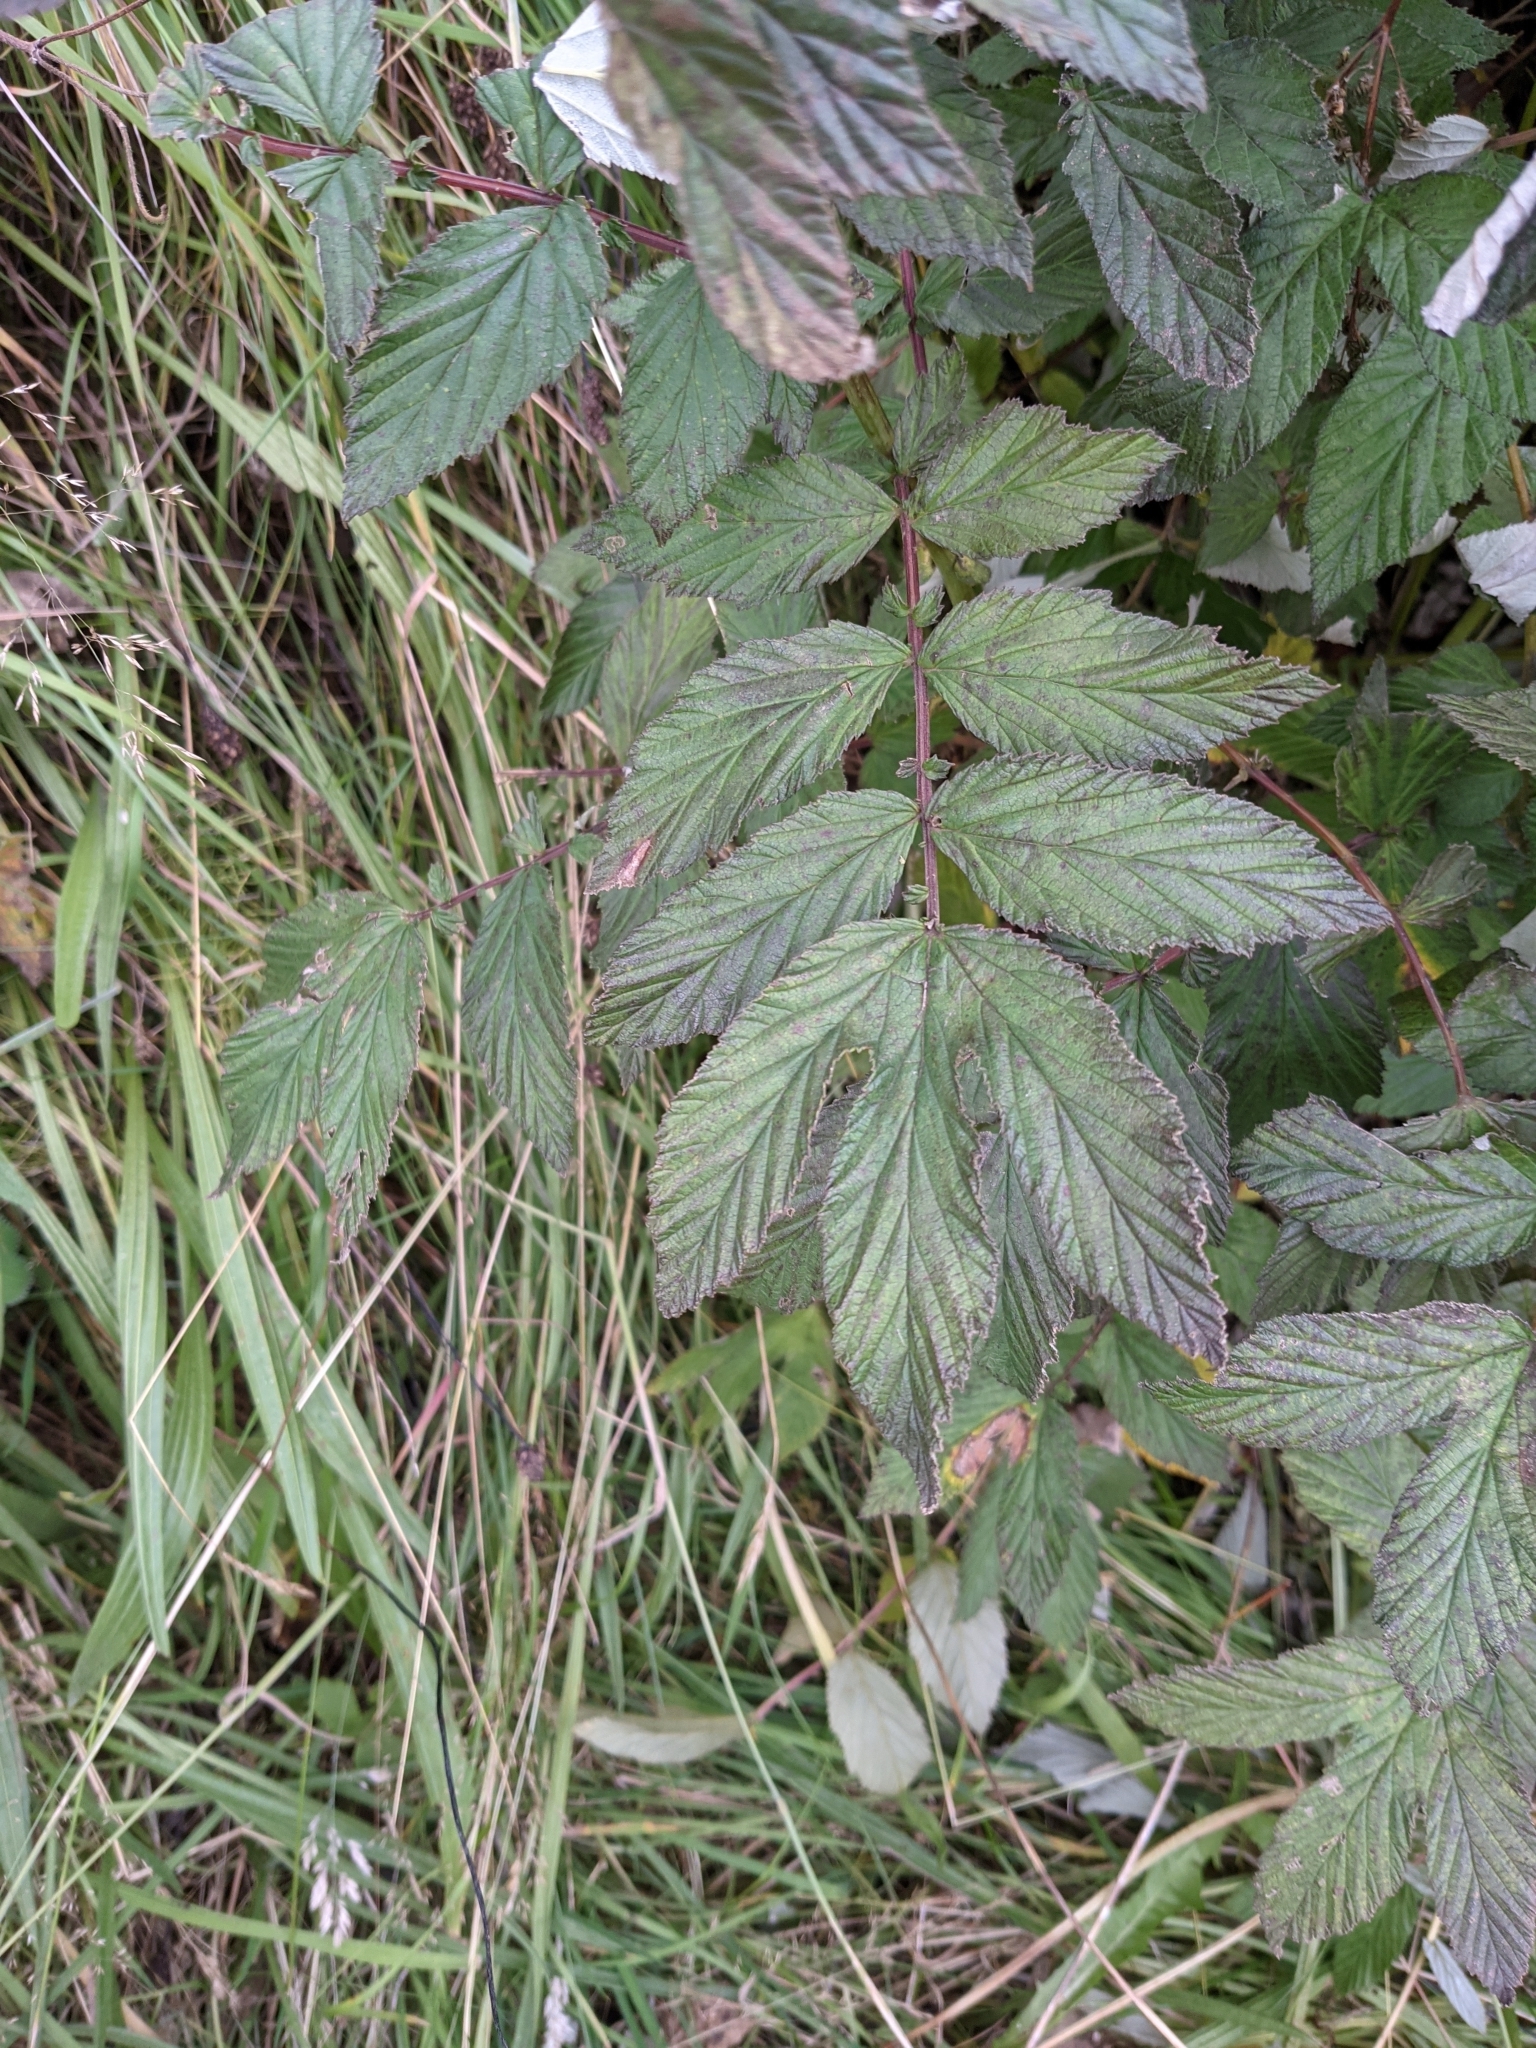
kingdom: Plantae
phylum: Tracheophyta
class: Magnoliopsida
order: Rosales
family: Rosaceae
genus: Filipendula
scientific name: Filipendula ulmaria
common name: Meadowsweet
